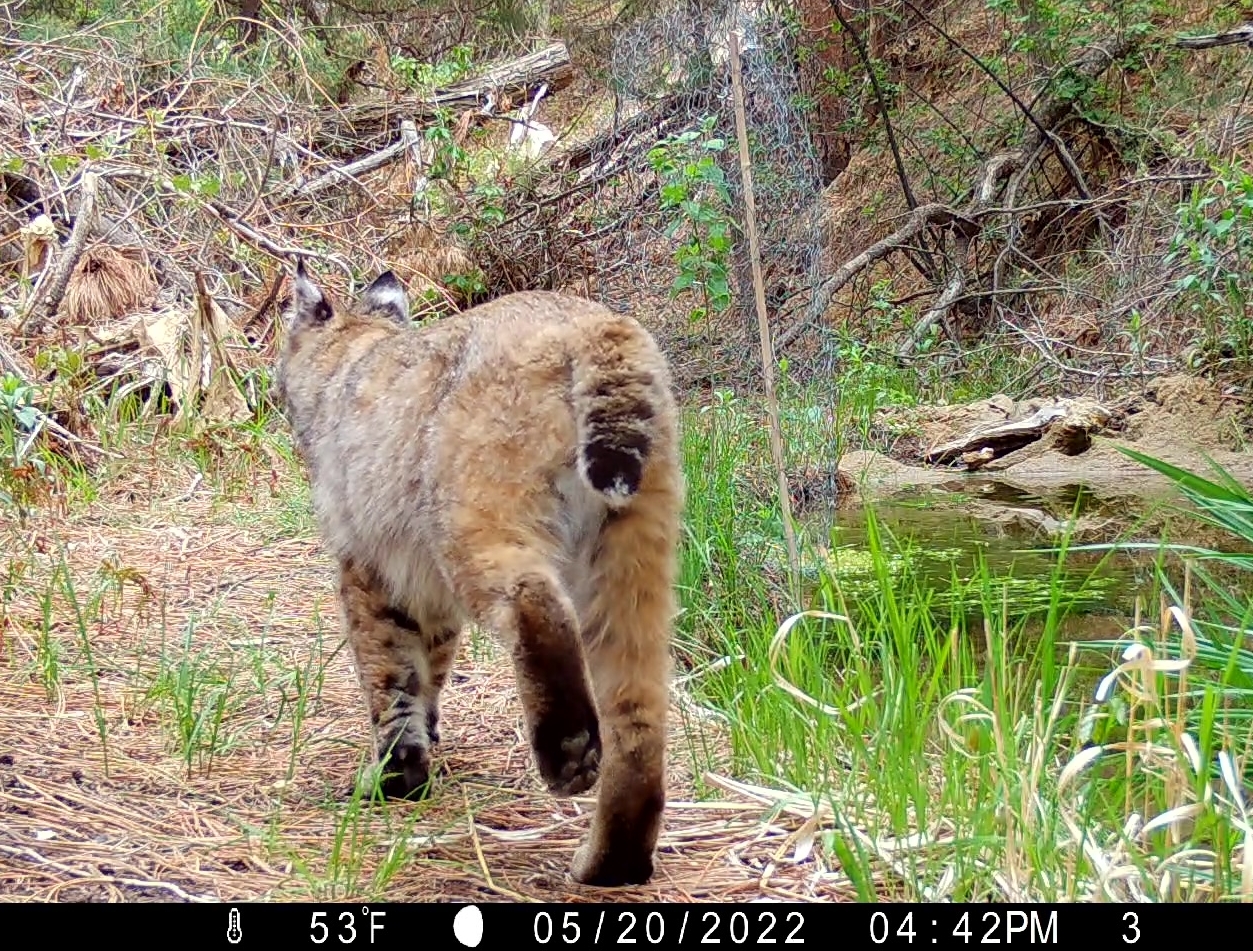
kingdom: Animalia
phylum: Chordata
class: Mammalia
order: Carnivora
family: Felidae
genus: Lynx
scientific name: Lynx rufus
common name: Bobcat
